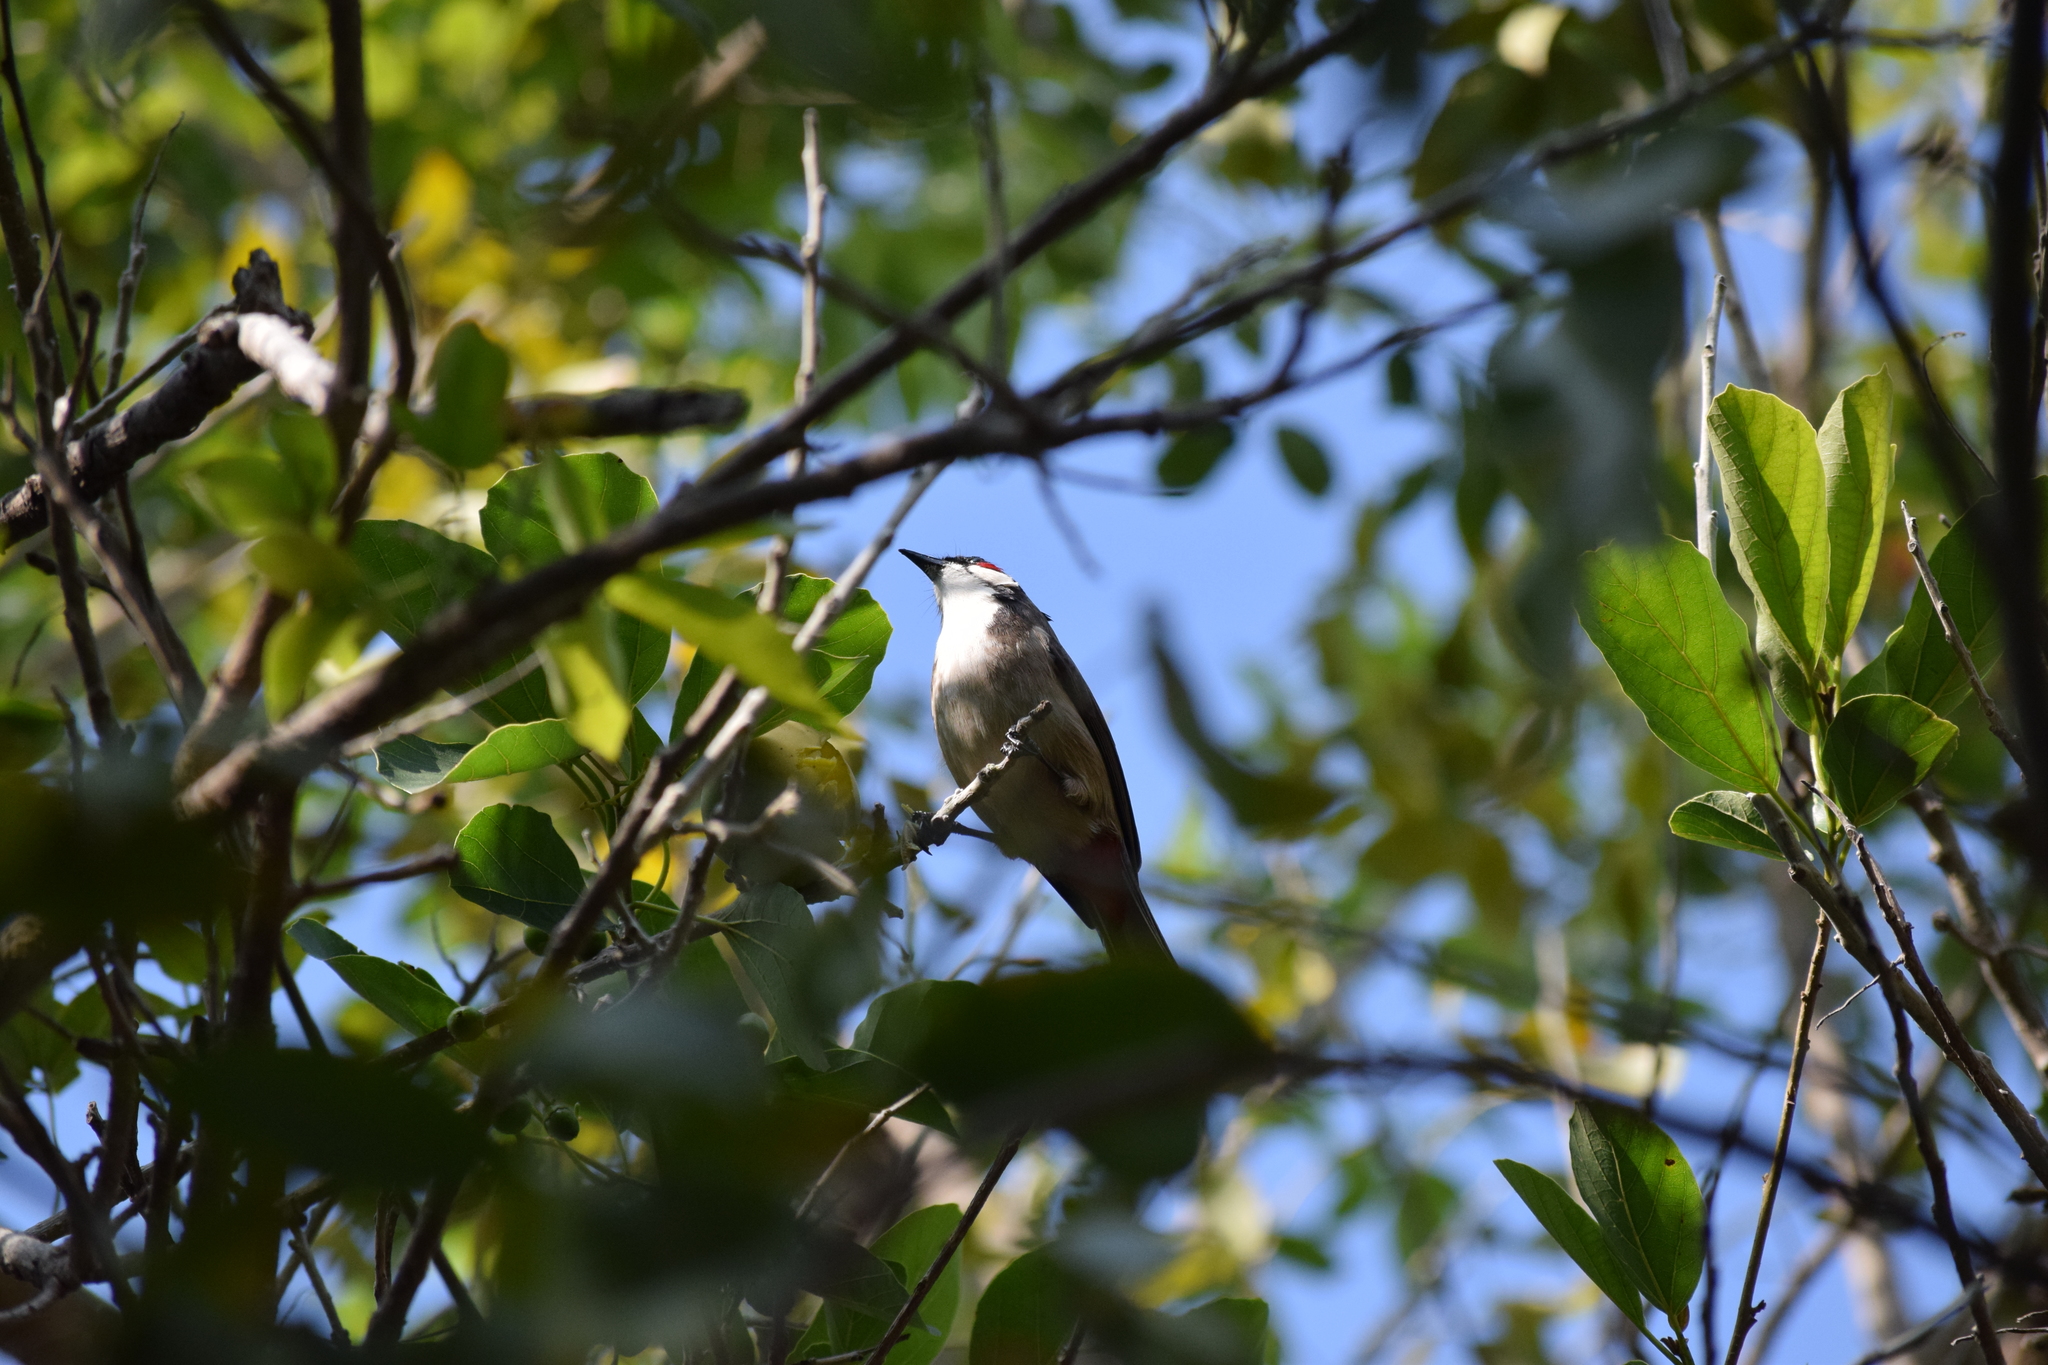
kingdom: Animalia
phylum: Chordata
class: Aves
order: Passeriformes
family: Pycnonotidae
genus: Pycnonotus
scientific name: Pycnonotus jocosus
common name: Red-whiskered bulbul
